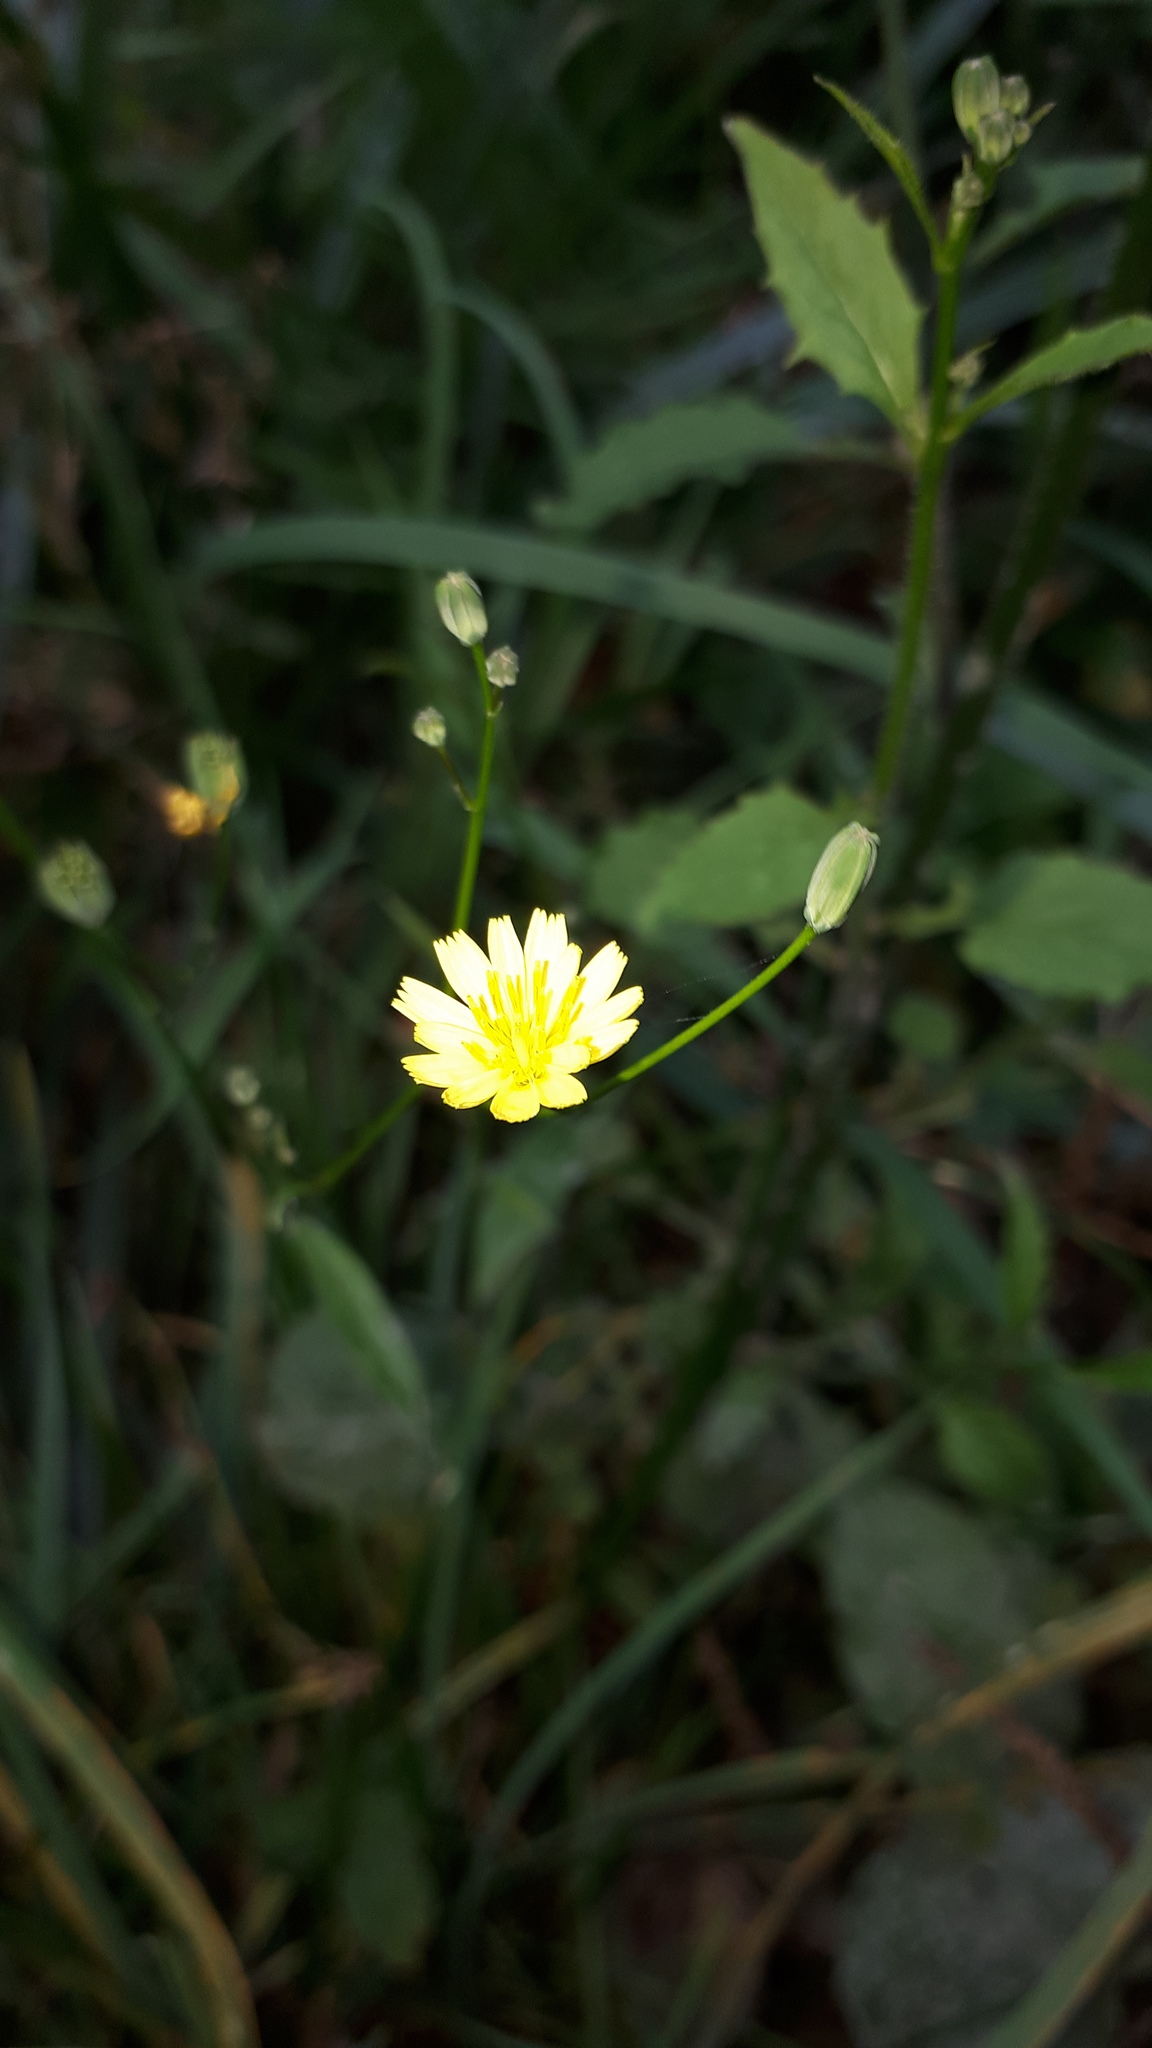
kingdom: Plantae
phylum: Tracheophyta
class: Magnoliopsida
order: Asterales
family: Asteraceae
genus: Lapsana
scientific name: Lapsana communis
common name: Nipplewort
